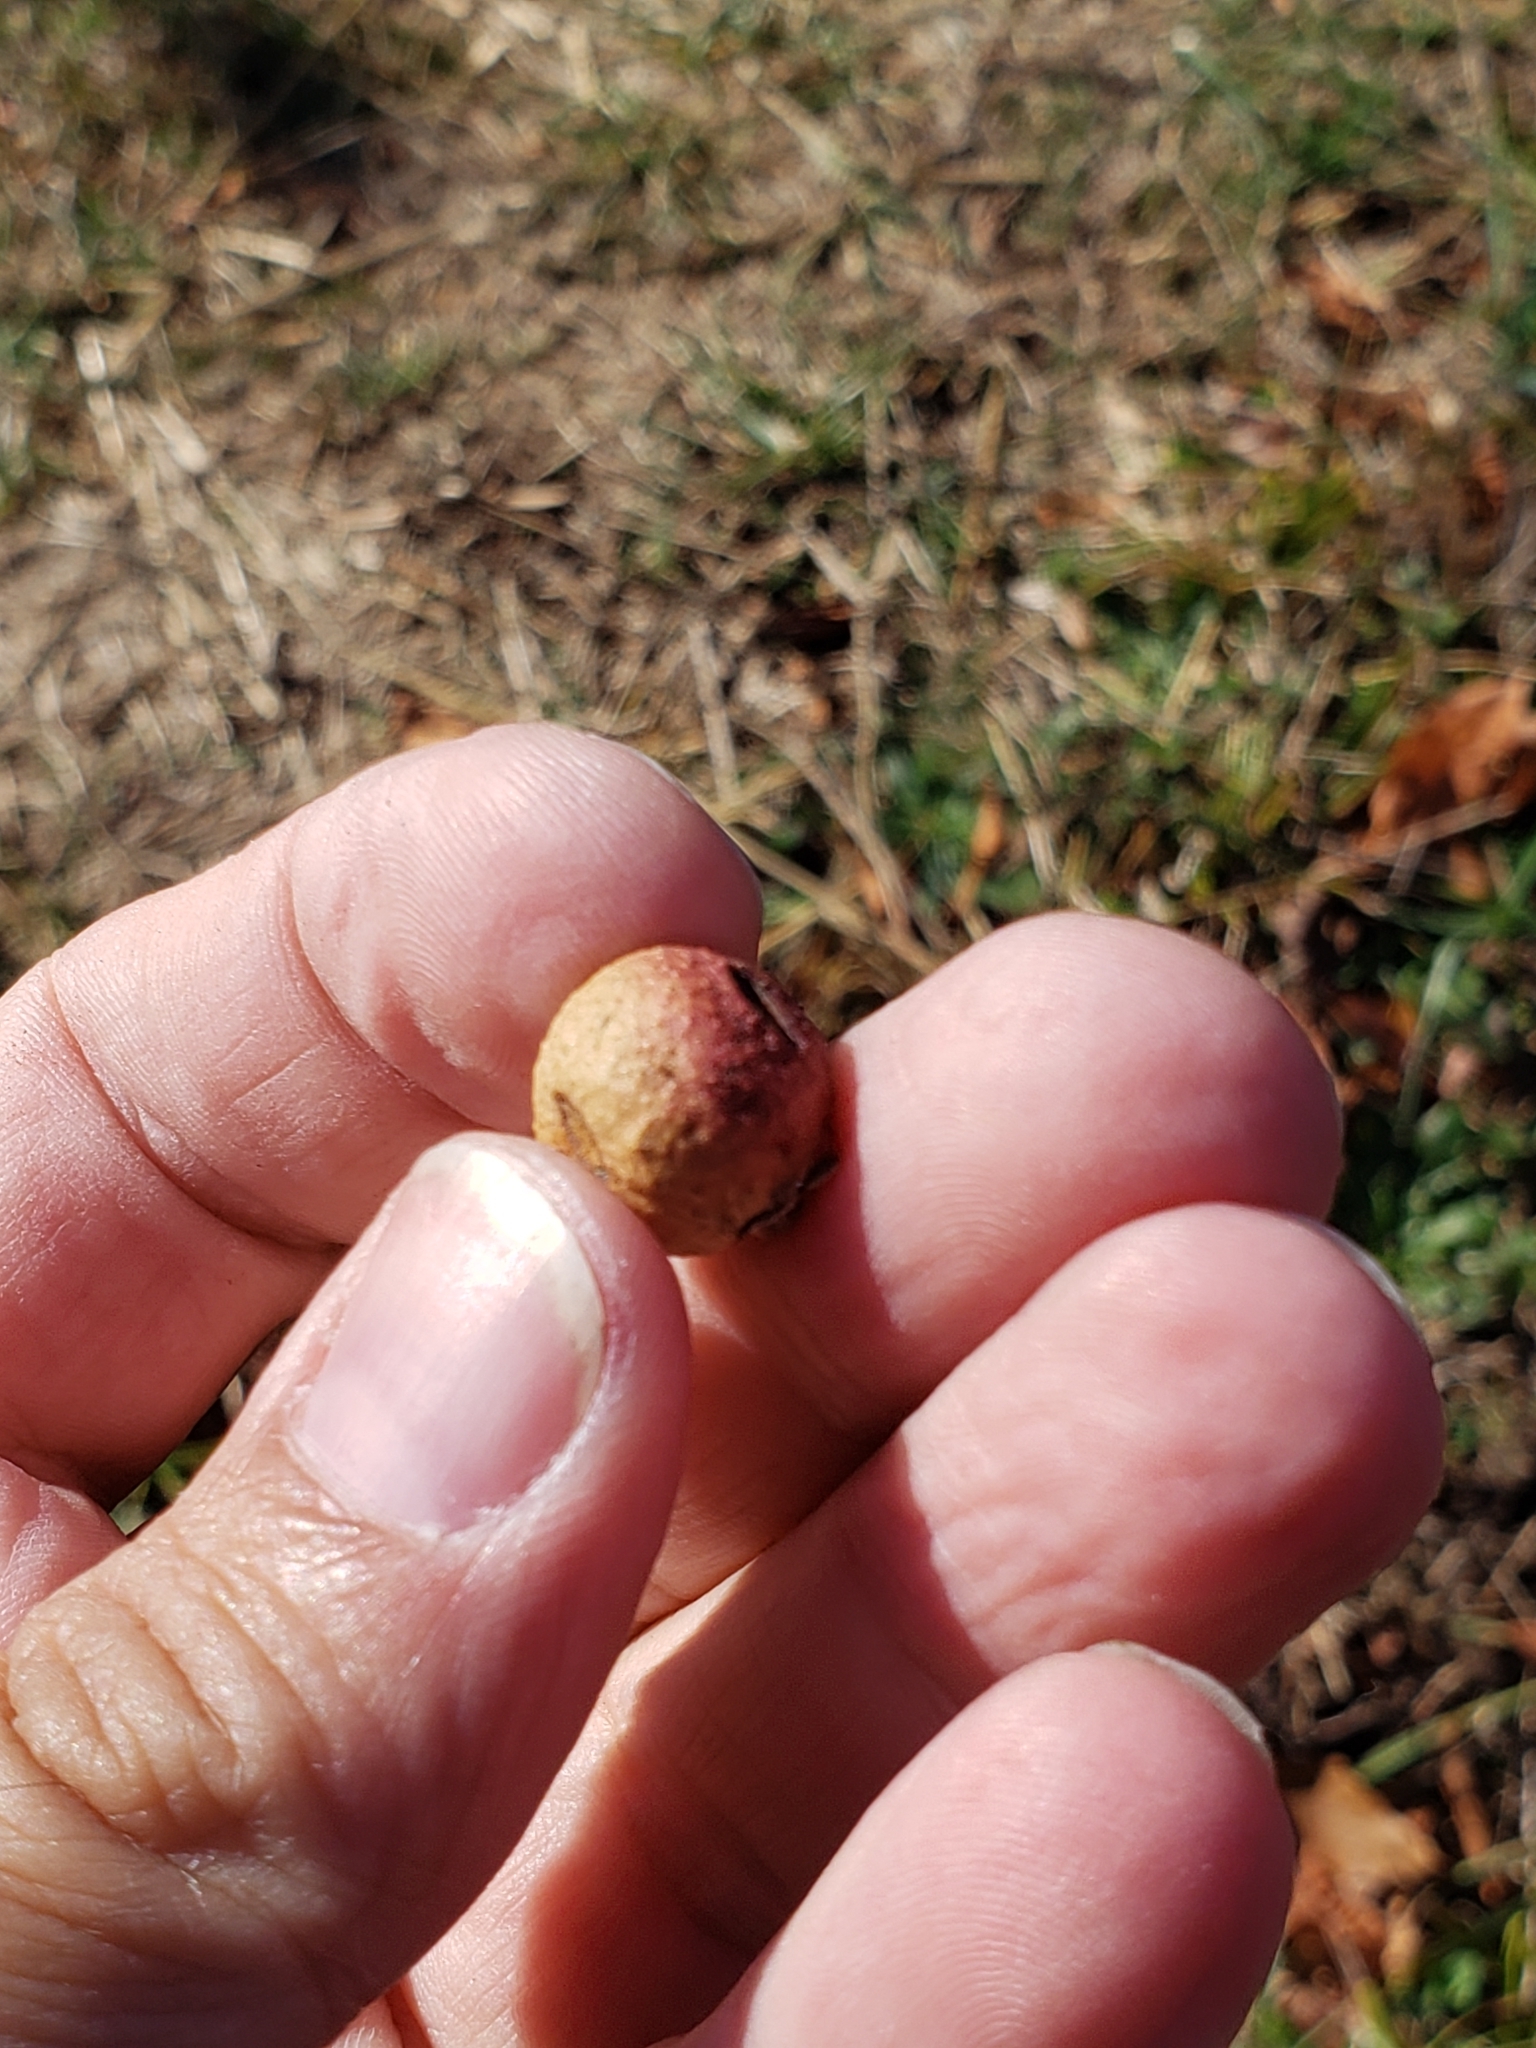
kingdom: Animalia
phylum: Arthropoda
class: Insecta
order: Hymenoptera
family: Cynipidae
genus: Disholcaspis
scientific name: Disholcaspis quercusglobulus
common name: Round bullet gall wasp
